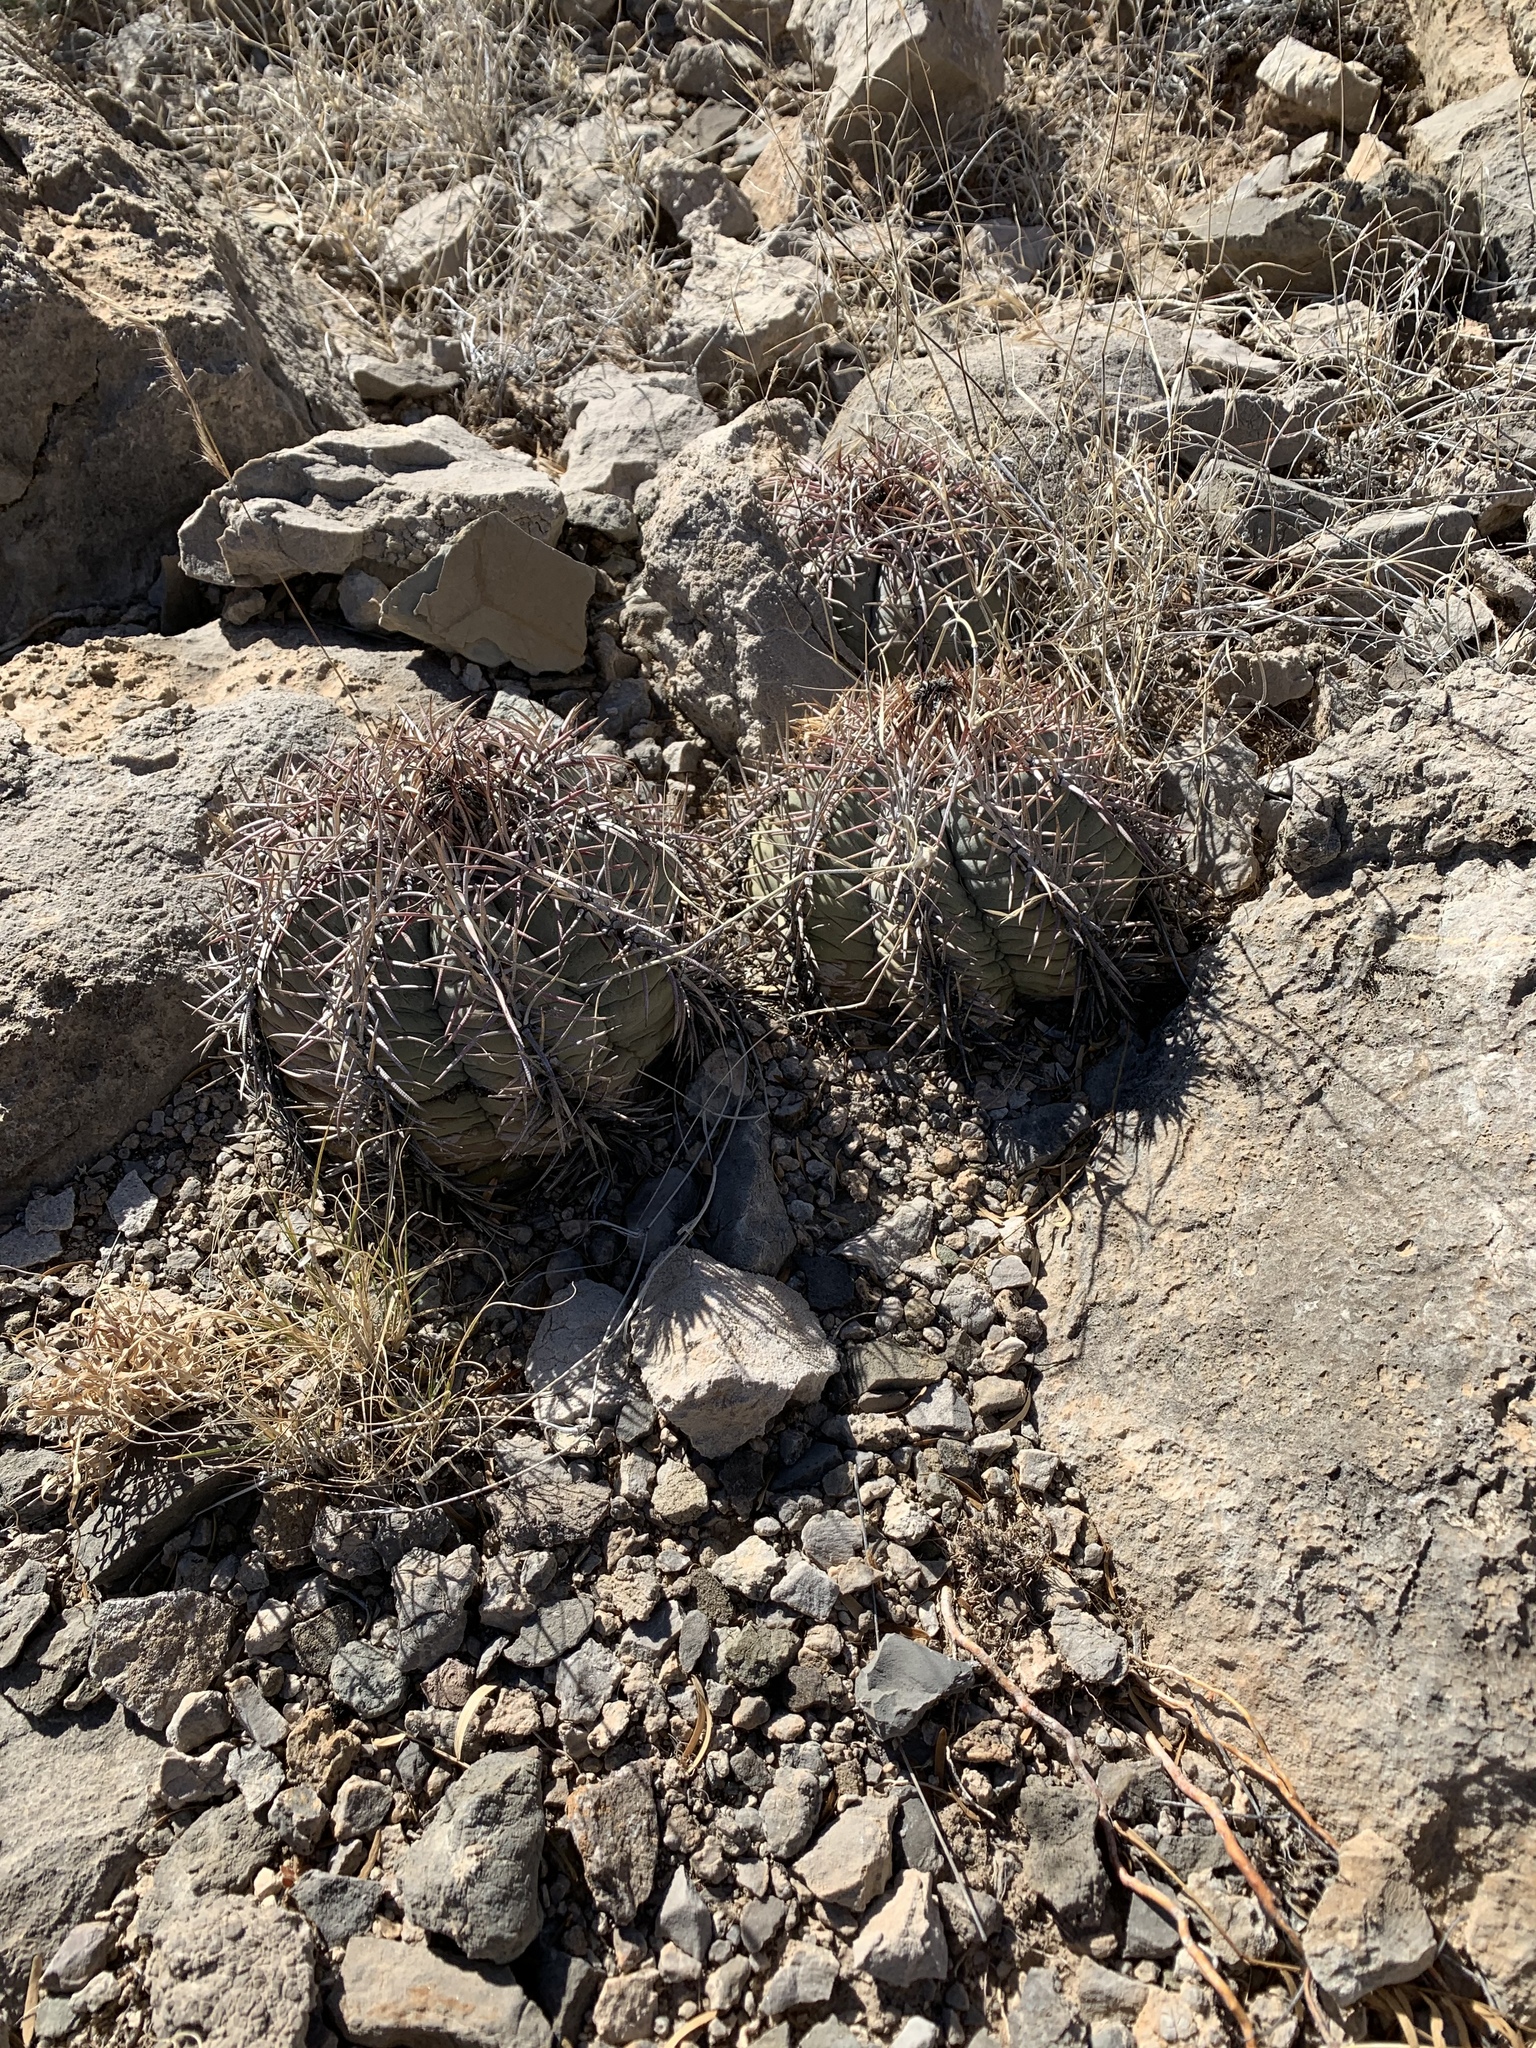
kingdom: Plantae
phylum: Tracheophyta
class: Magnoliopsida
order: Caryophyllales
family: Cactaceae
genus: Echinocactus
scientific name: Echinocactus horizonthalonius
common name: Devilshead
